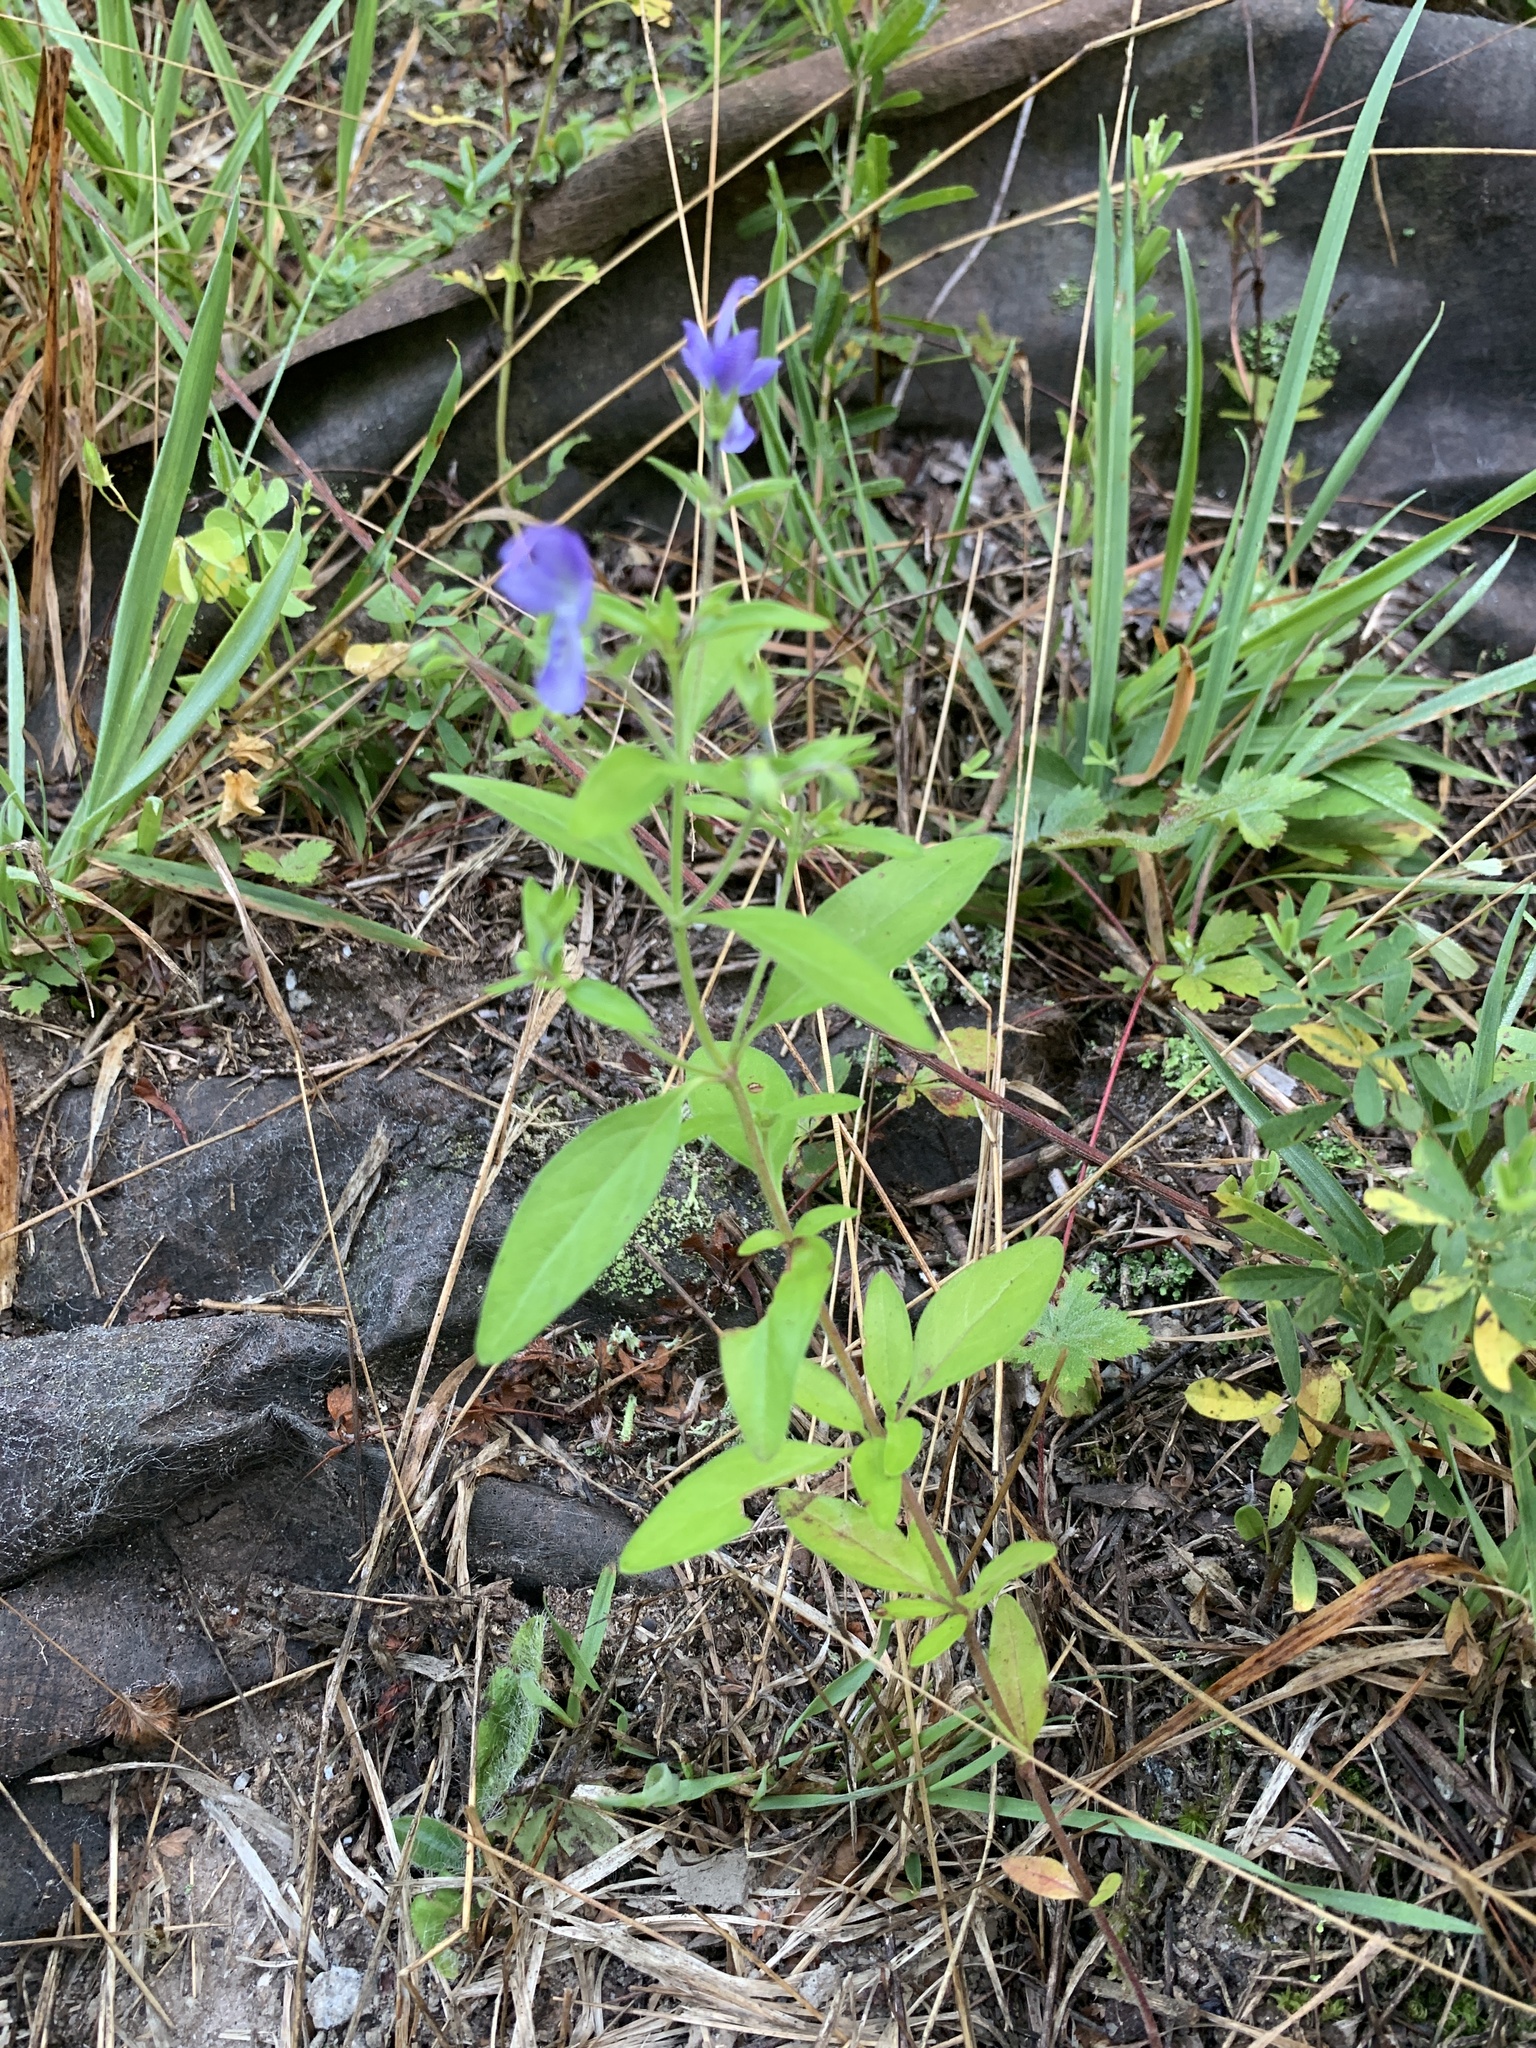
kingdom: Plantae
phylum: Tracheophyta
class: Magnoliopsida
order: Lamiales
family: Lamiaceae
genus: Trichostema
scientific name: Trichostema dichotomum
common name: Bastard pennyroyal
